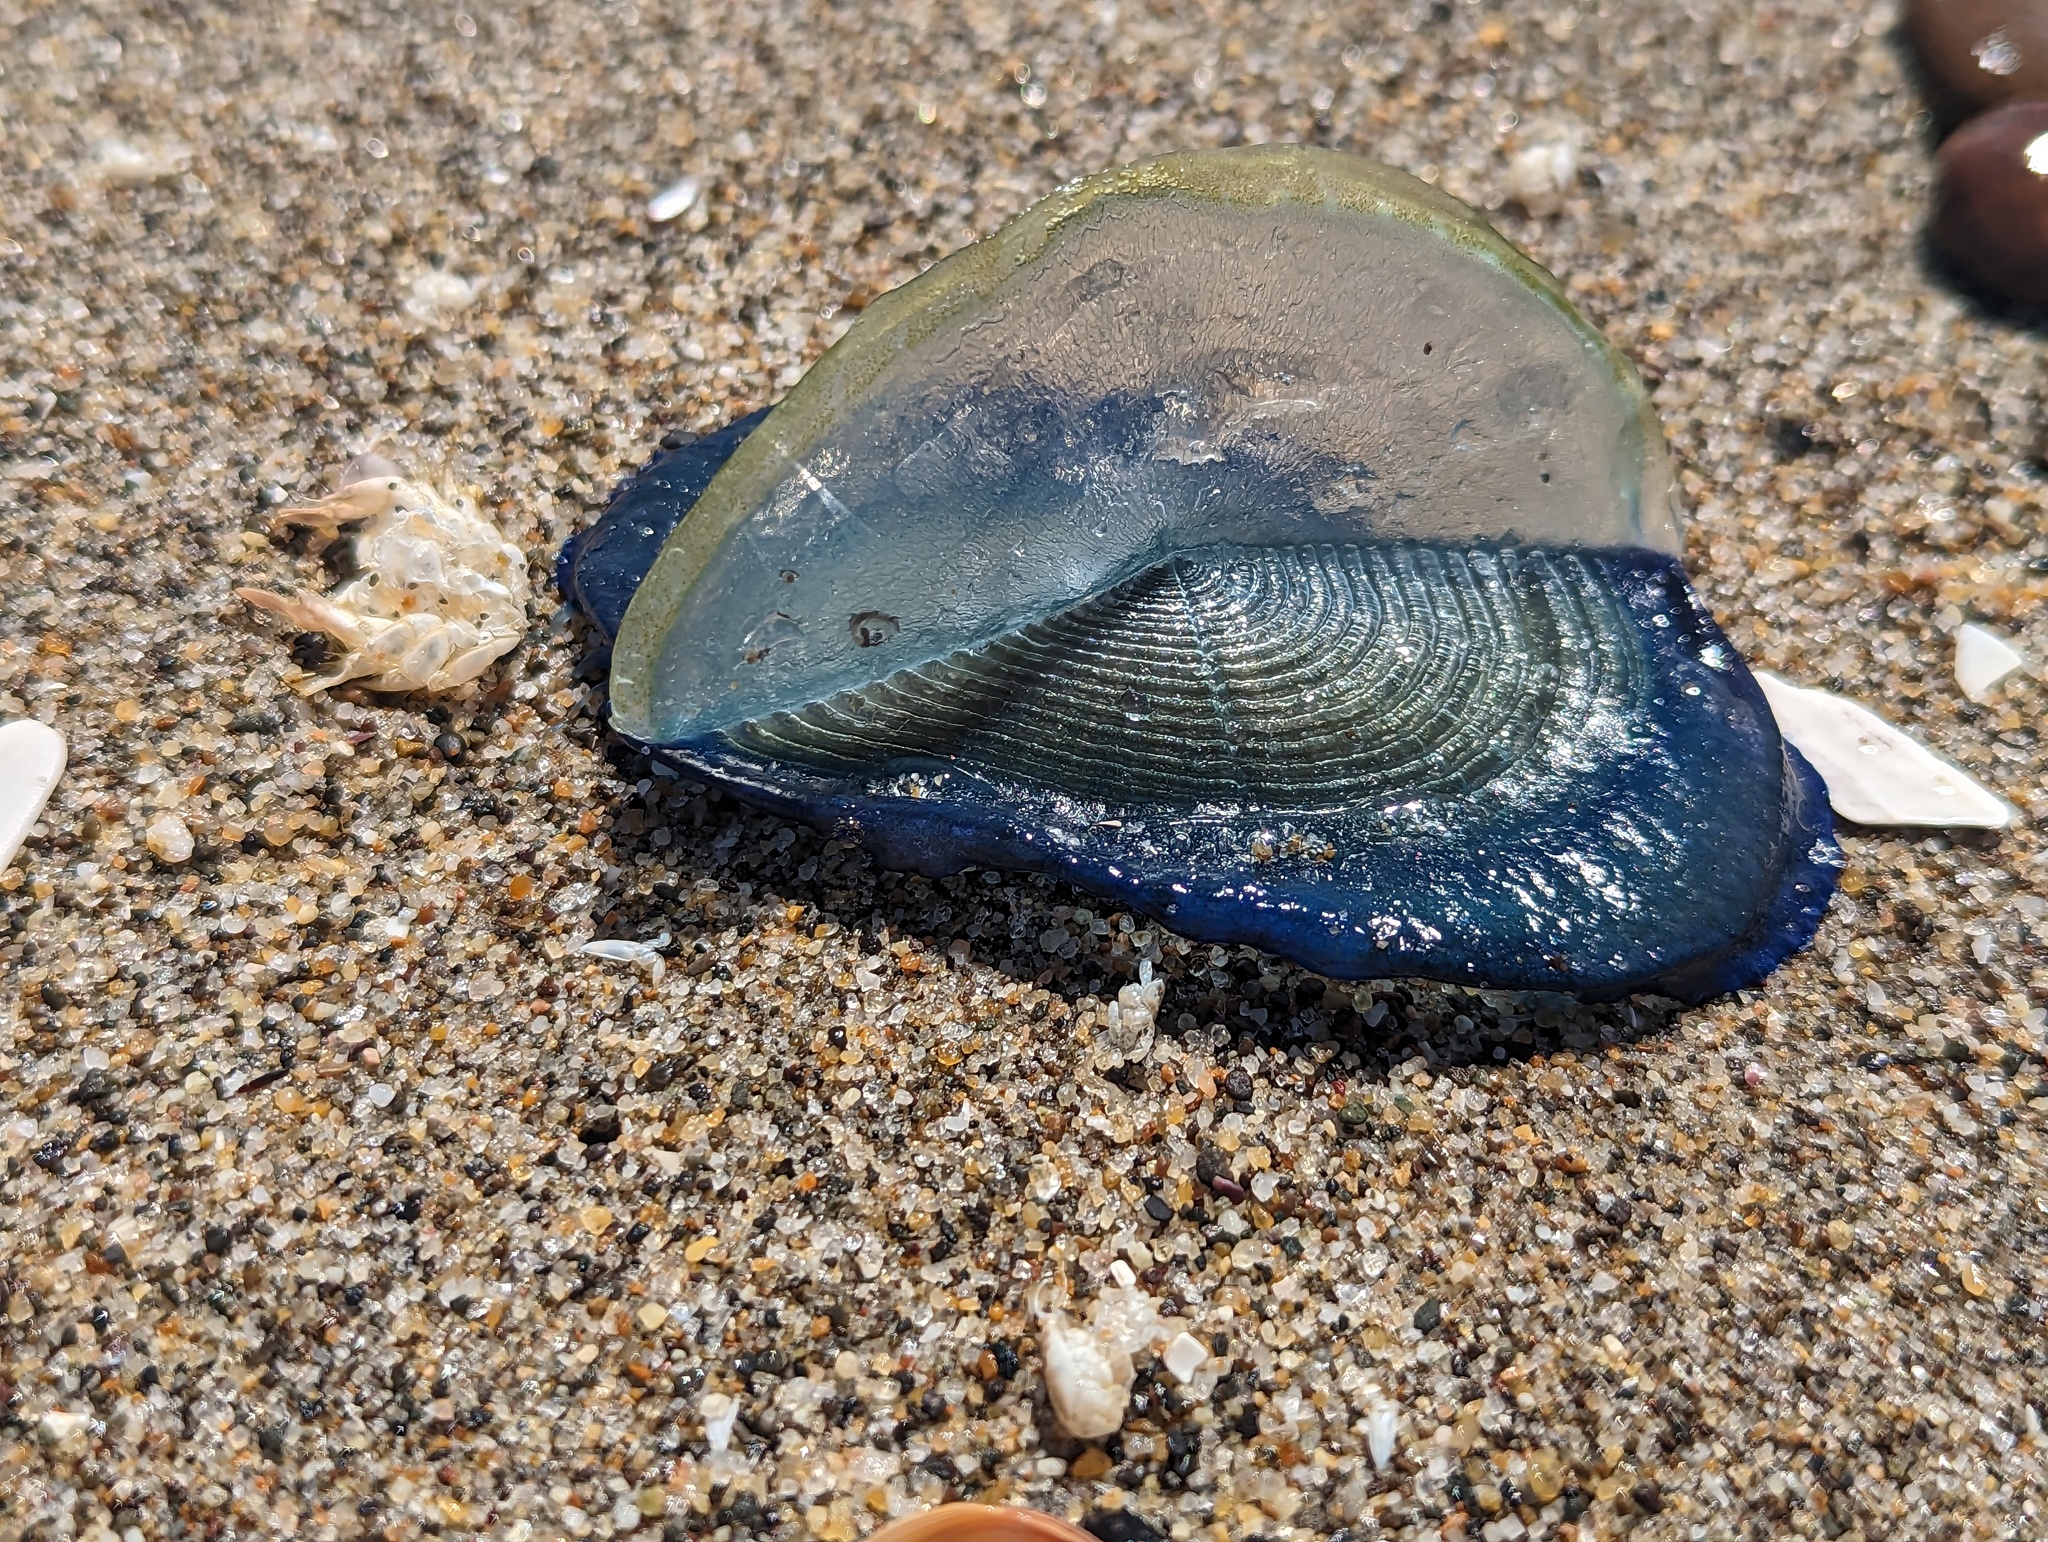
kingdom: Animalia
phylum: Cnidaria
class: Hydrozoa
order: Anthoathecata
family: Porpitidae
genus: Velella
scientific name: Velella velella
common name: By-the-wind-sailor
